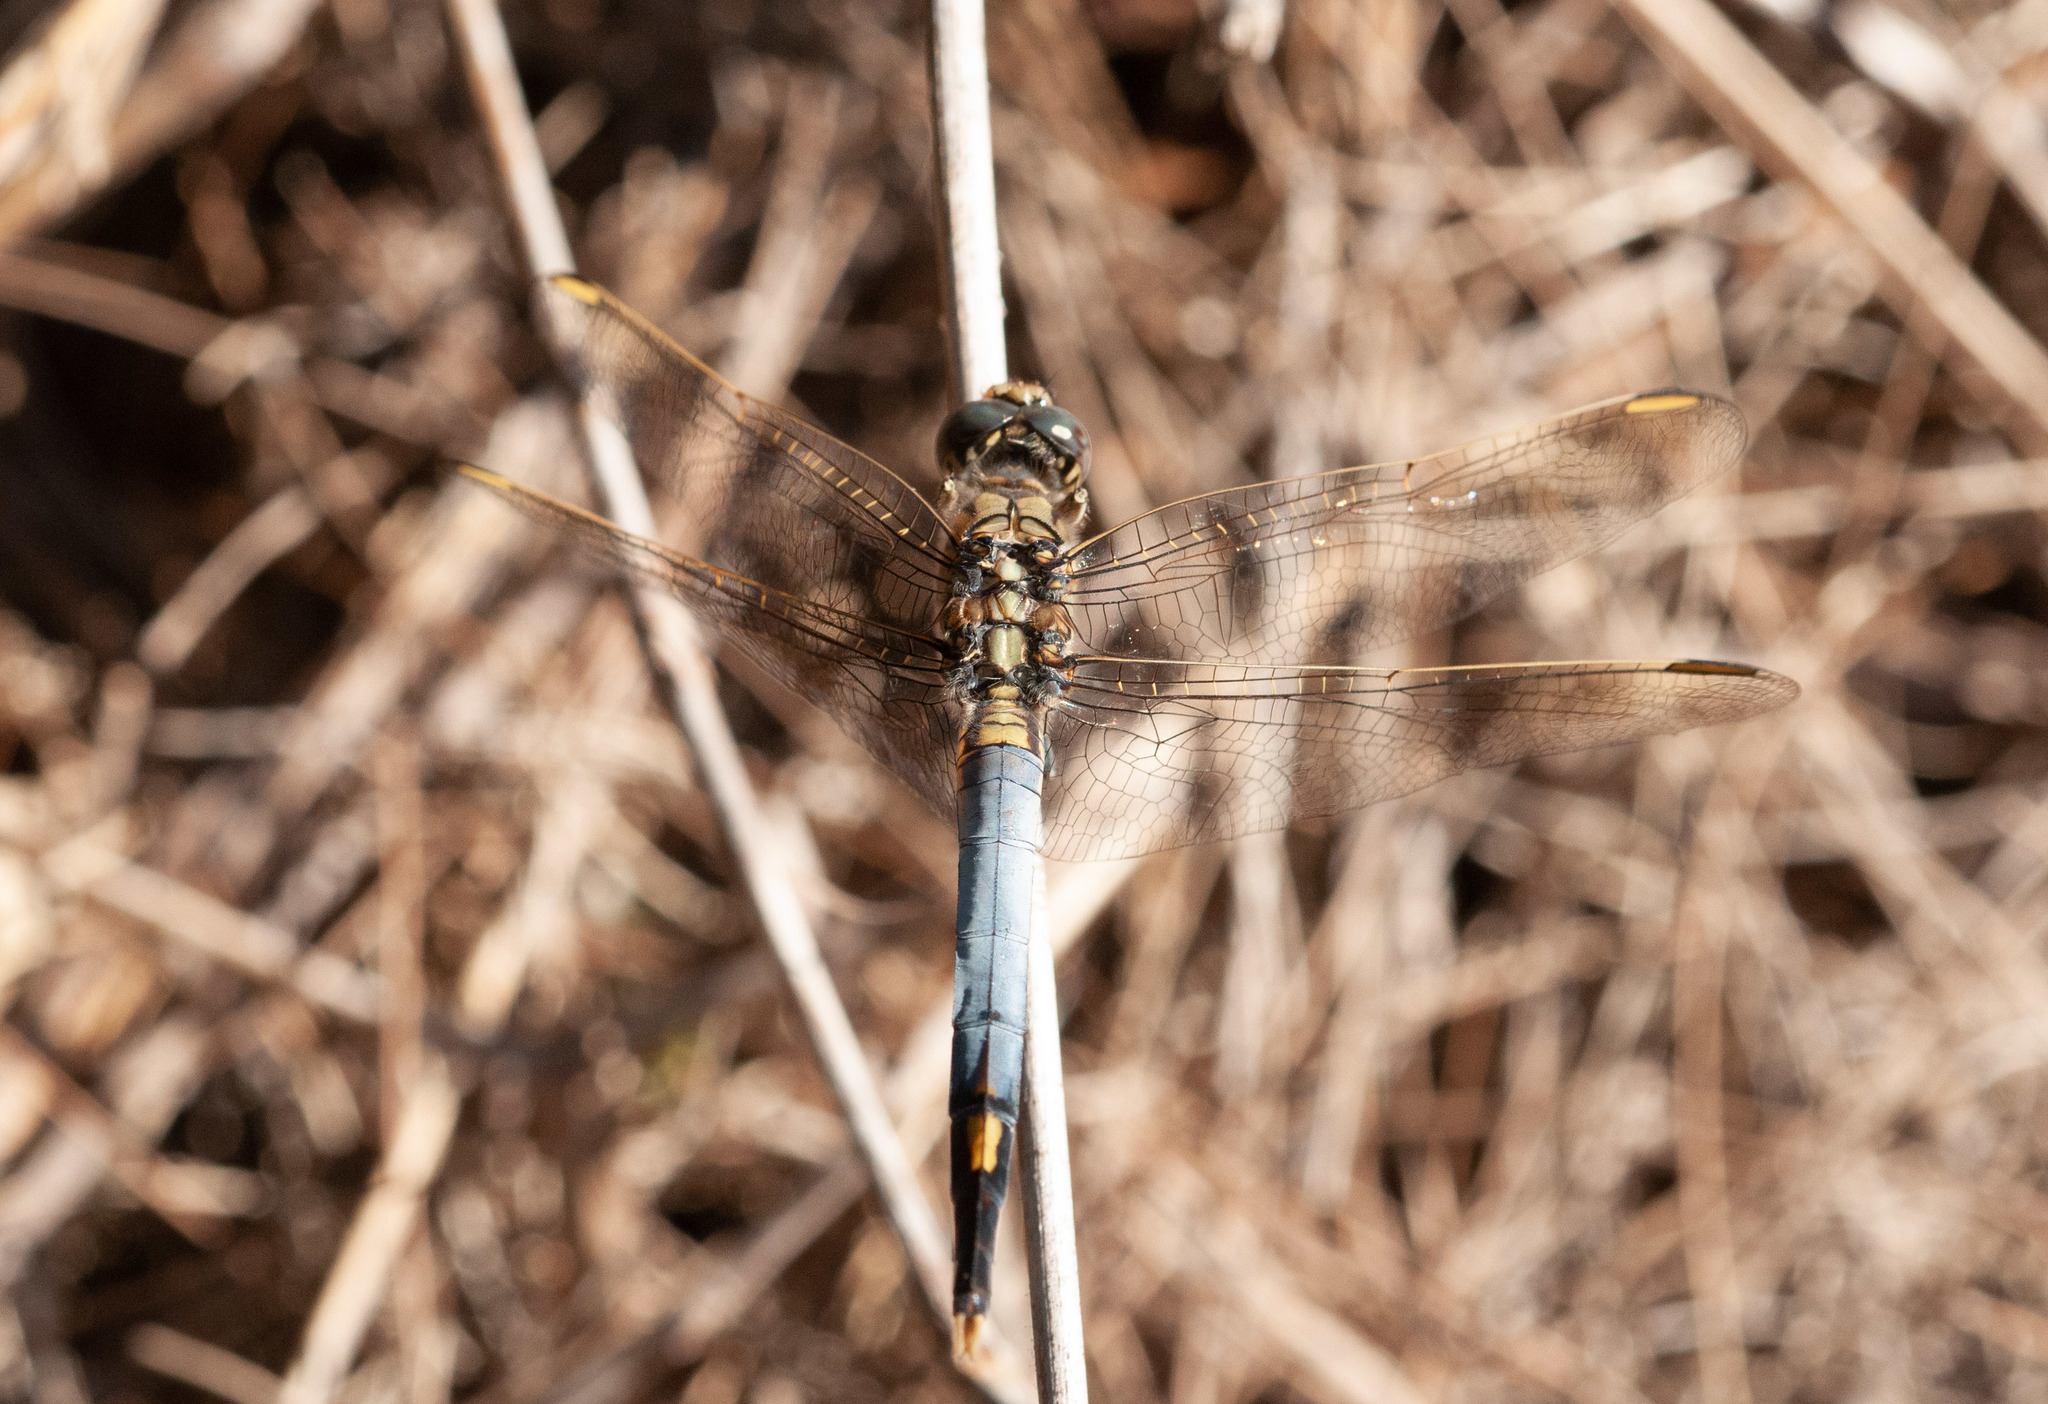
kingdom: Animalia
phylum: Arthropoda
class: Insecta
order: Odonata
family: Libellulidae
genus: Orthetrum
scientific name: Orthetrum caledonicum
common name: Blue skimmer
